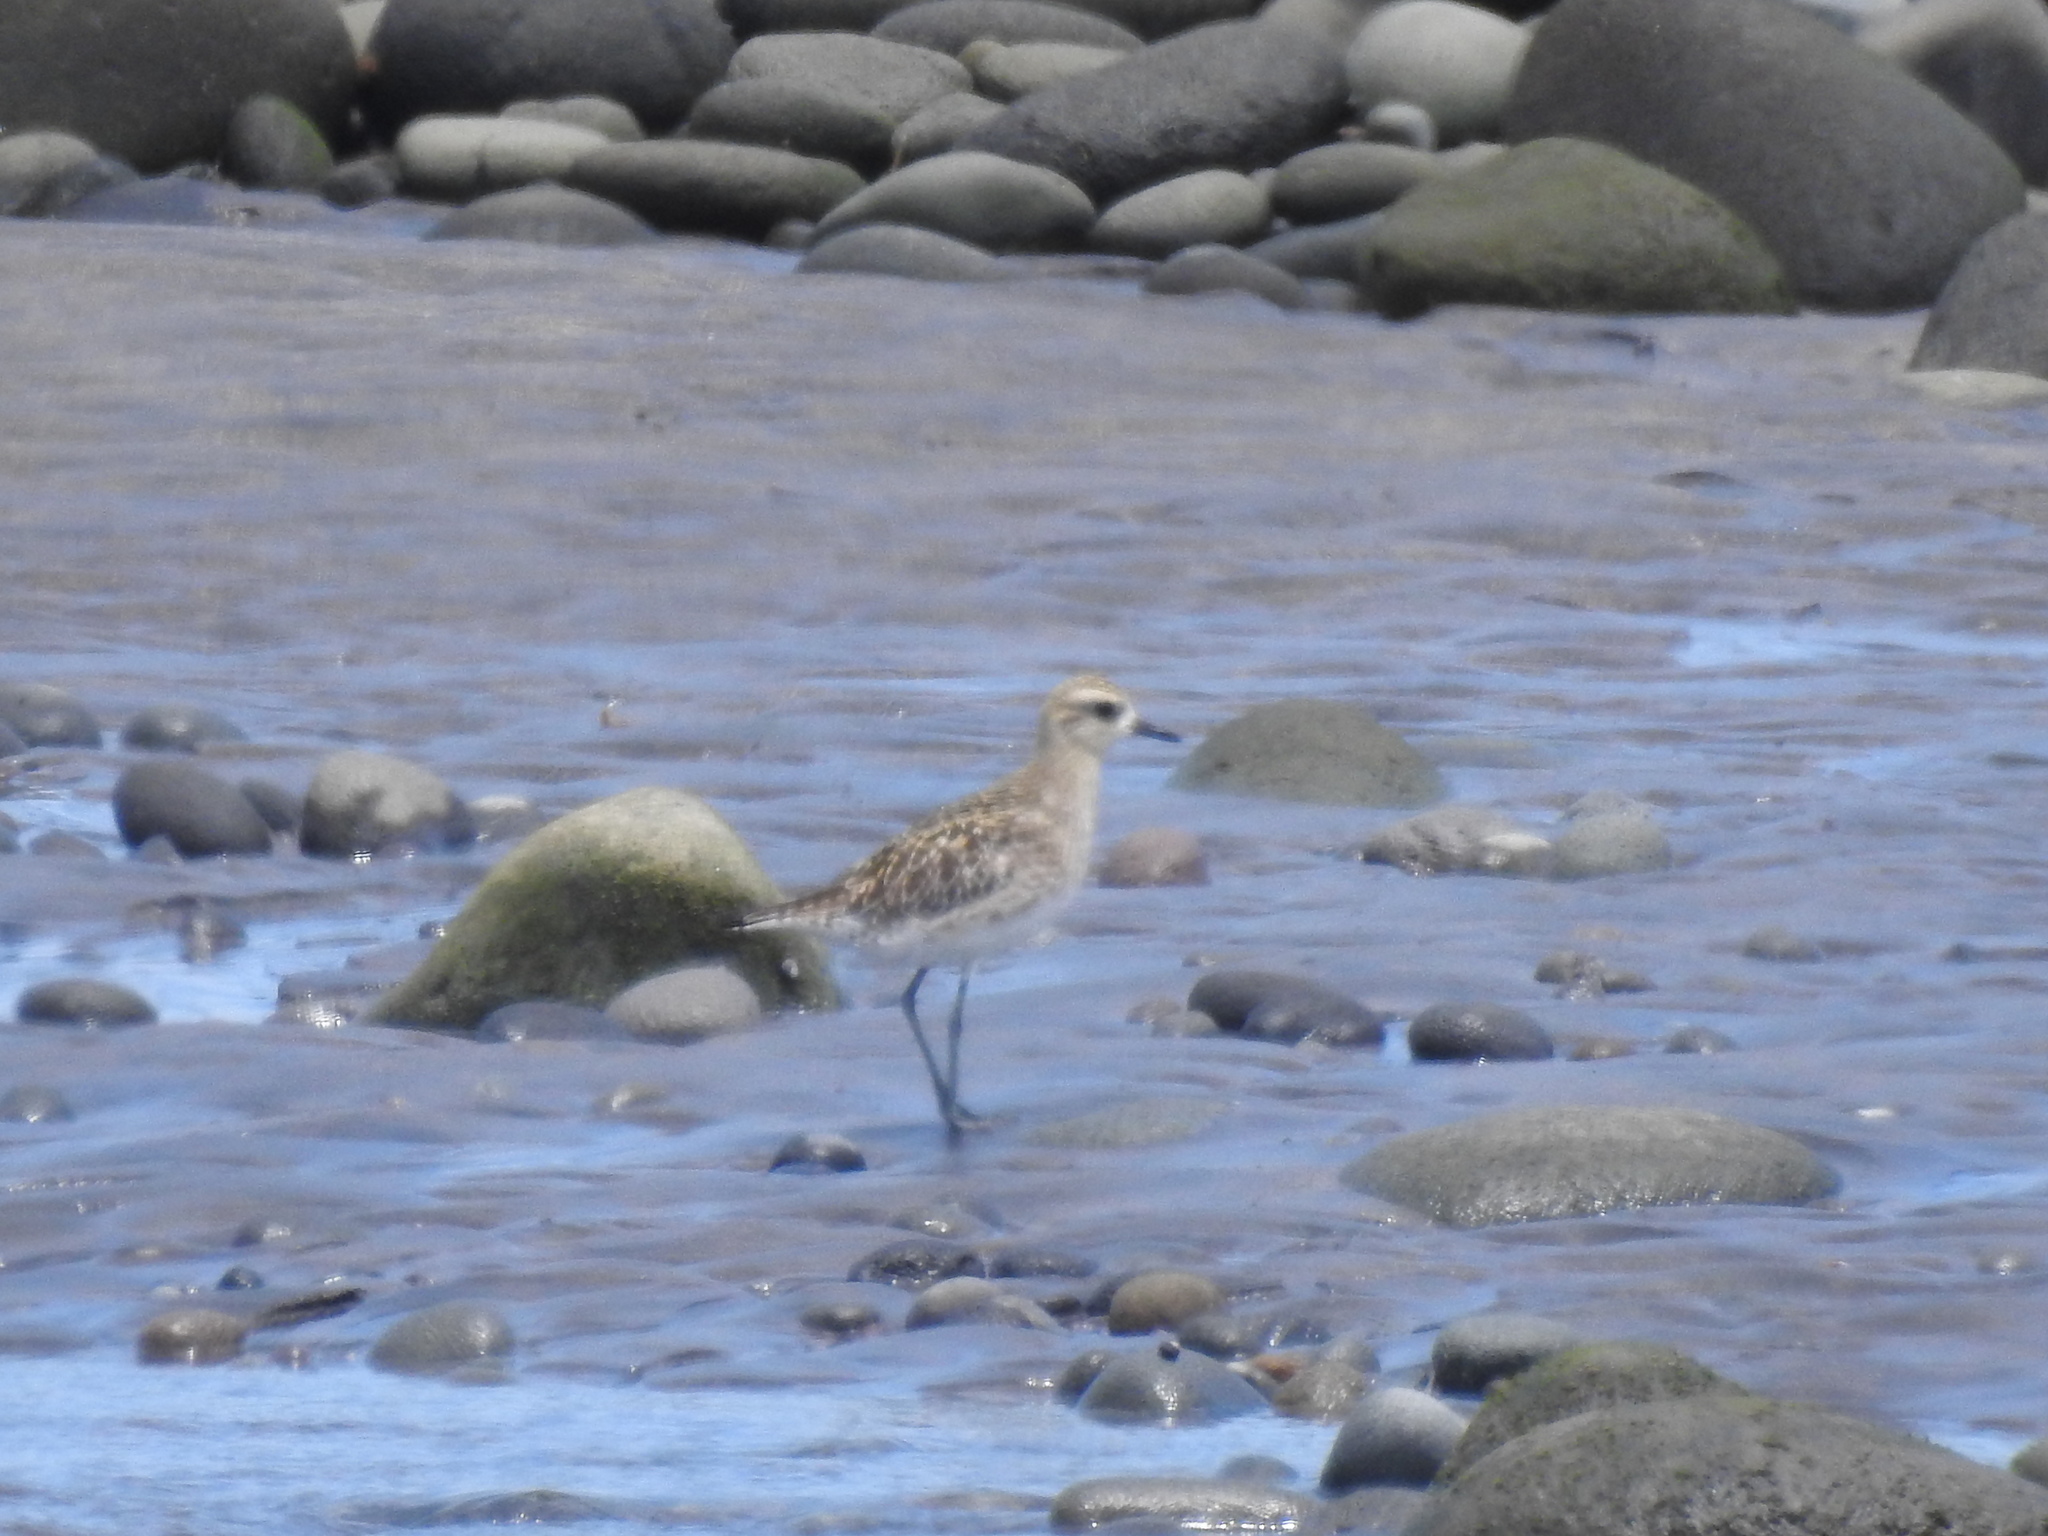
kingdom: Animalia
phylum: Chordata
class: Aves
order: Charadriiformes
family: Charadriidae
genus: Pluvialis
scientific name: Pluvialis fulva
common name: Pacific golden plover
